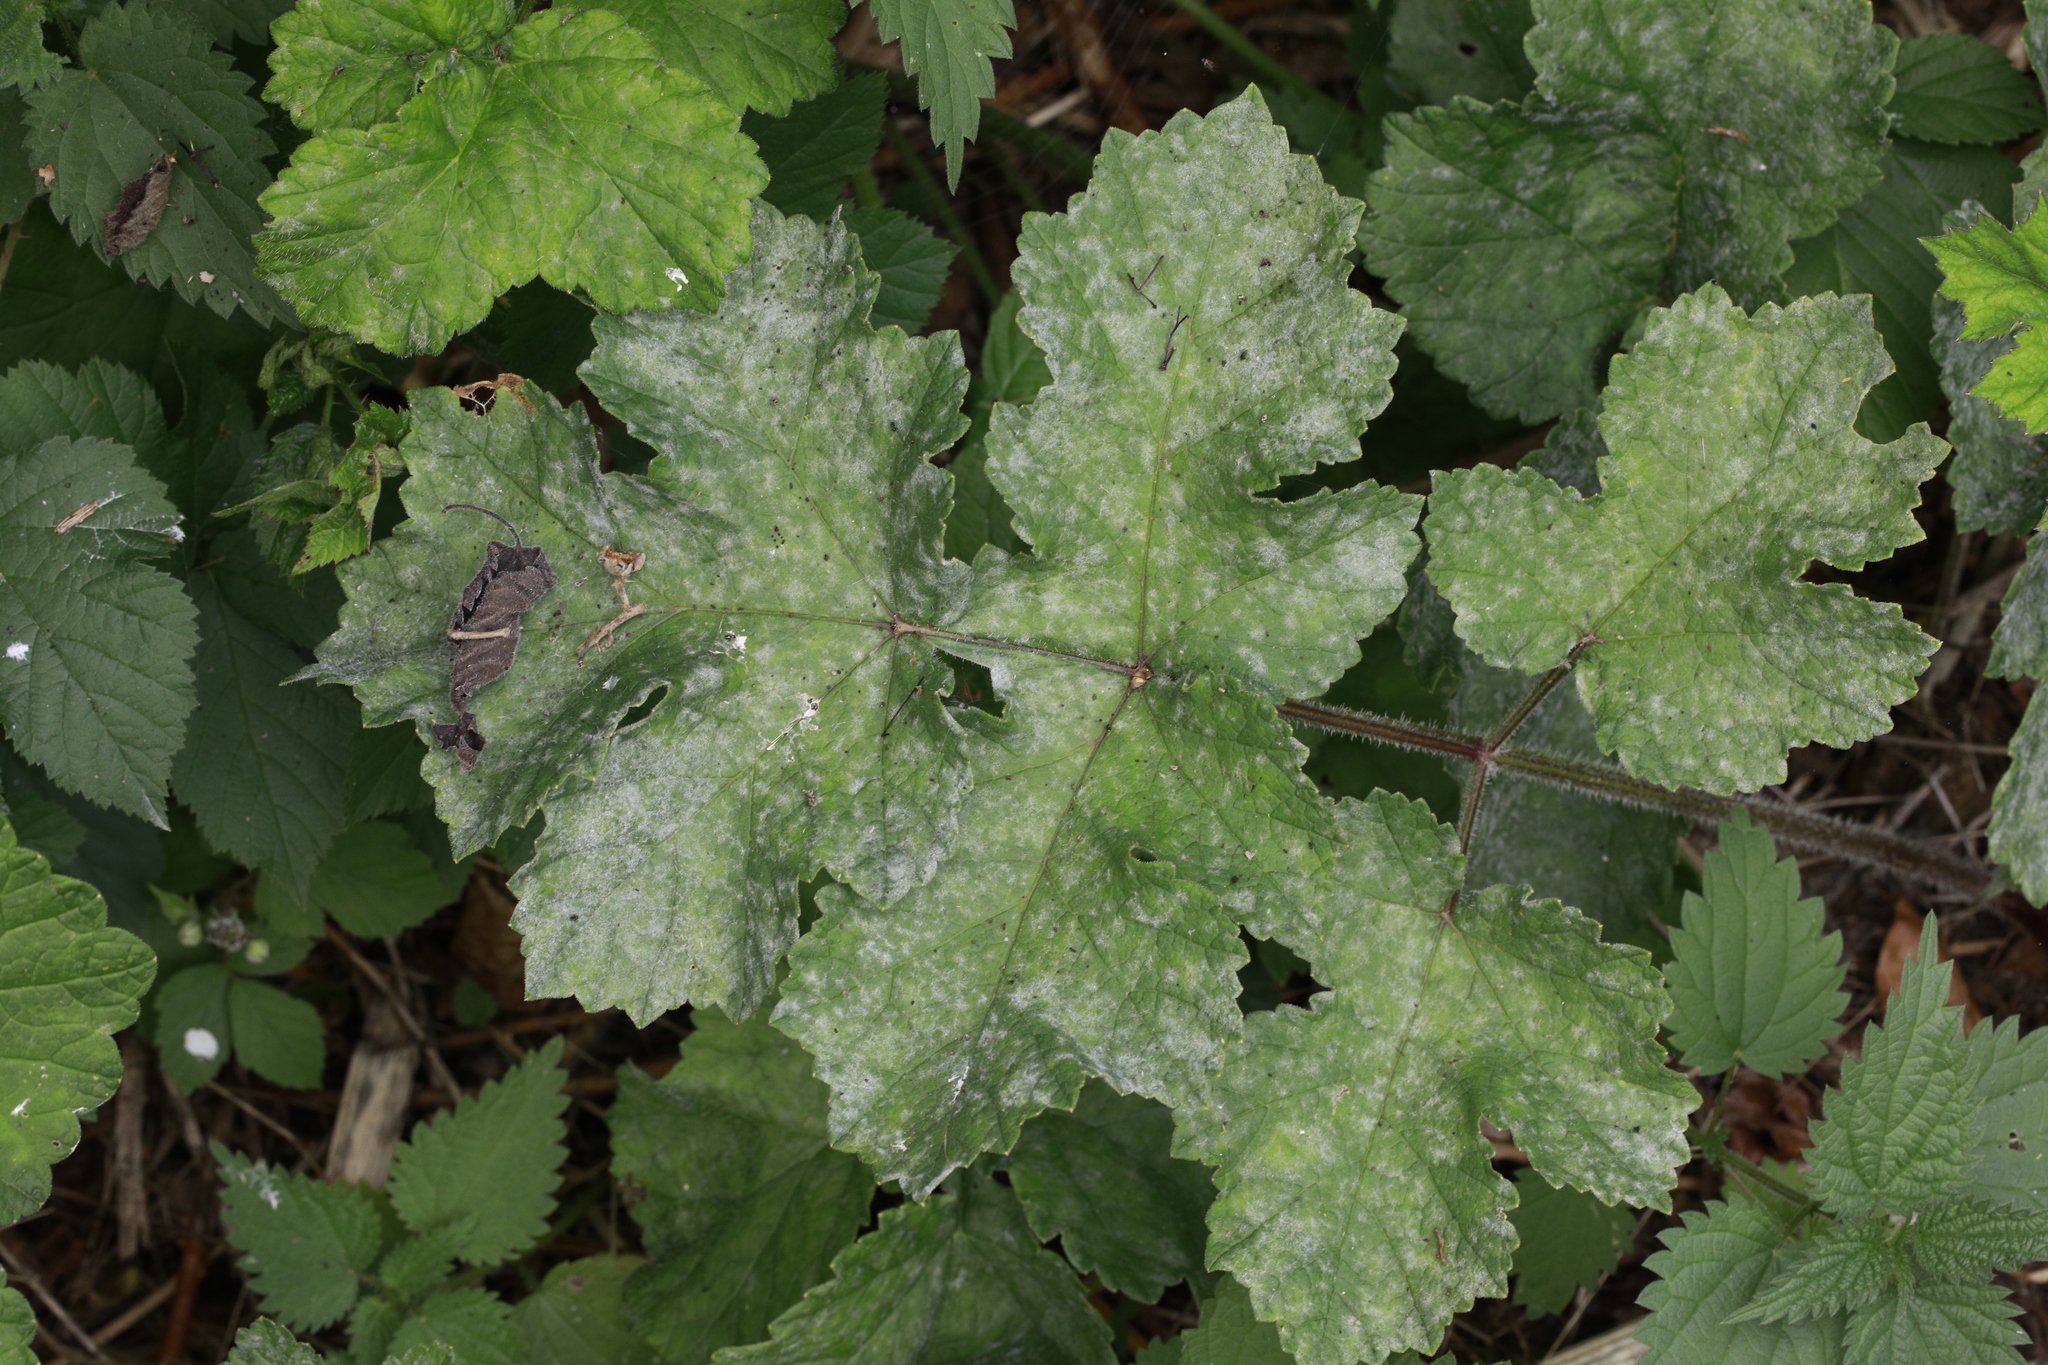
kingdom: Fungi
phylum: Ascomycota
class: Leotiomycetes
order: Helotiales
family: Erysiphaceae
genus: Erysiphe
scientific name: Erysiphe heraclei
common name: Umbellifer mildew
